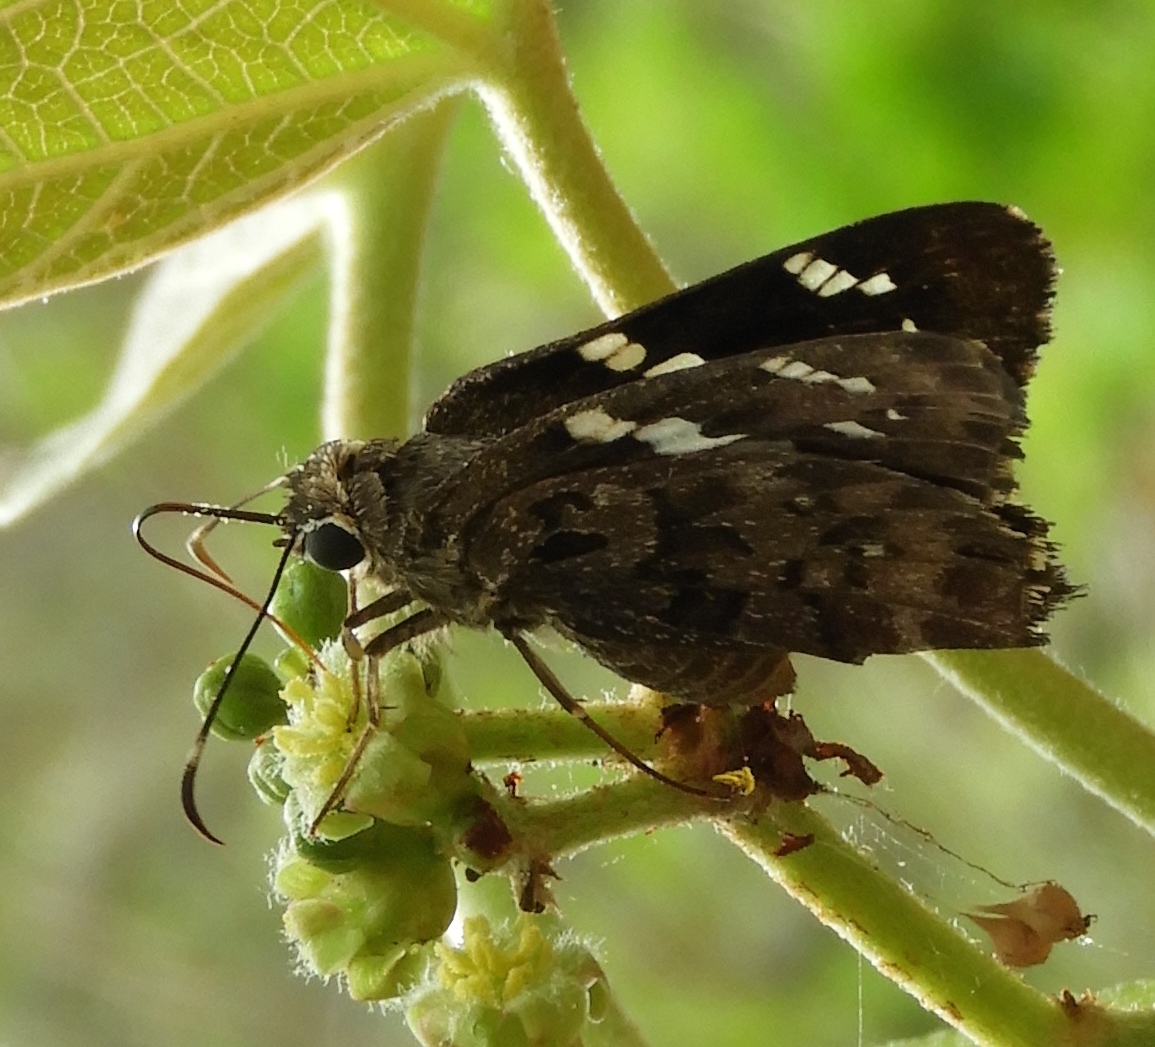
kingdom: Animalia
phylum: Arthropoda
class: Insecta
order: Lepidoptera
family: Hesperiidae
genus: Codatractus
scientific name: Codatractus melon
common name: Melon mottled-skipper
